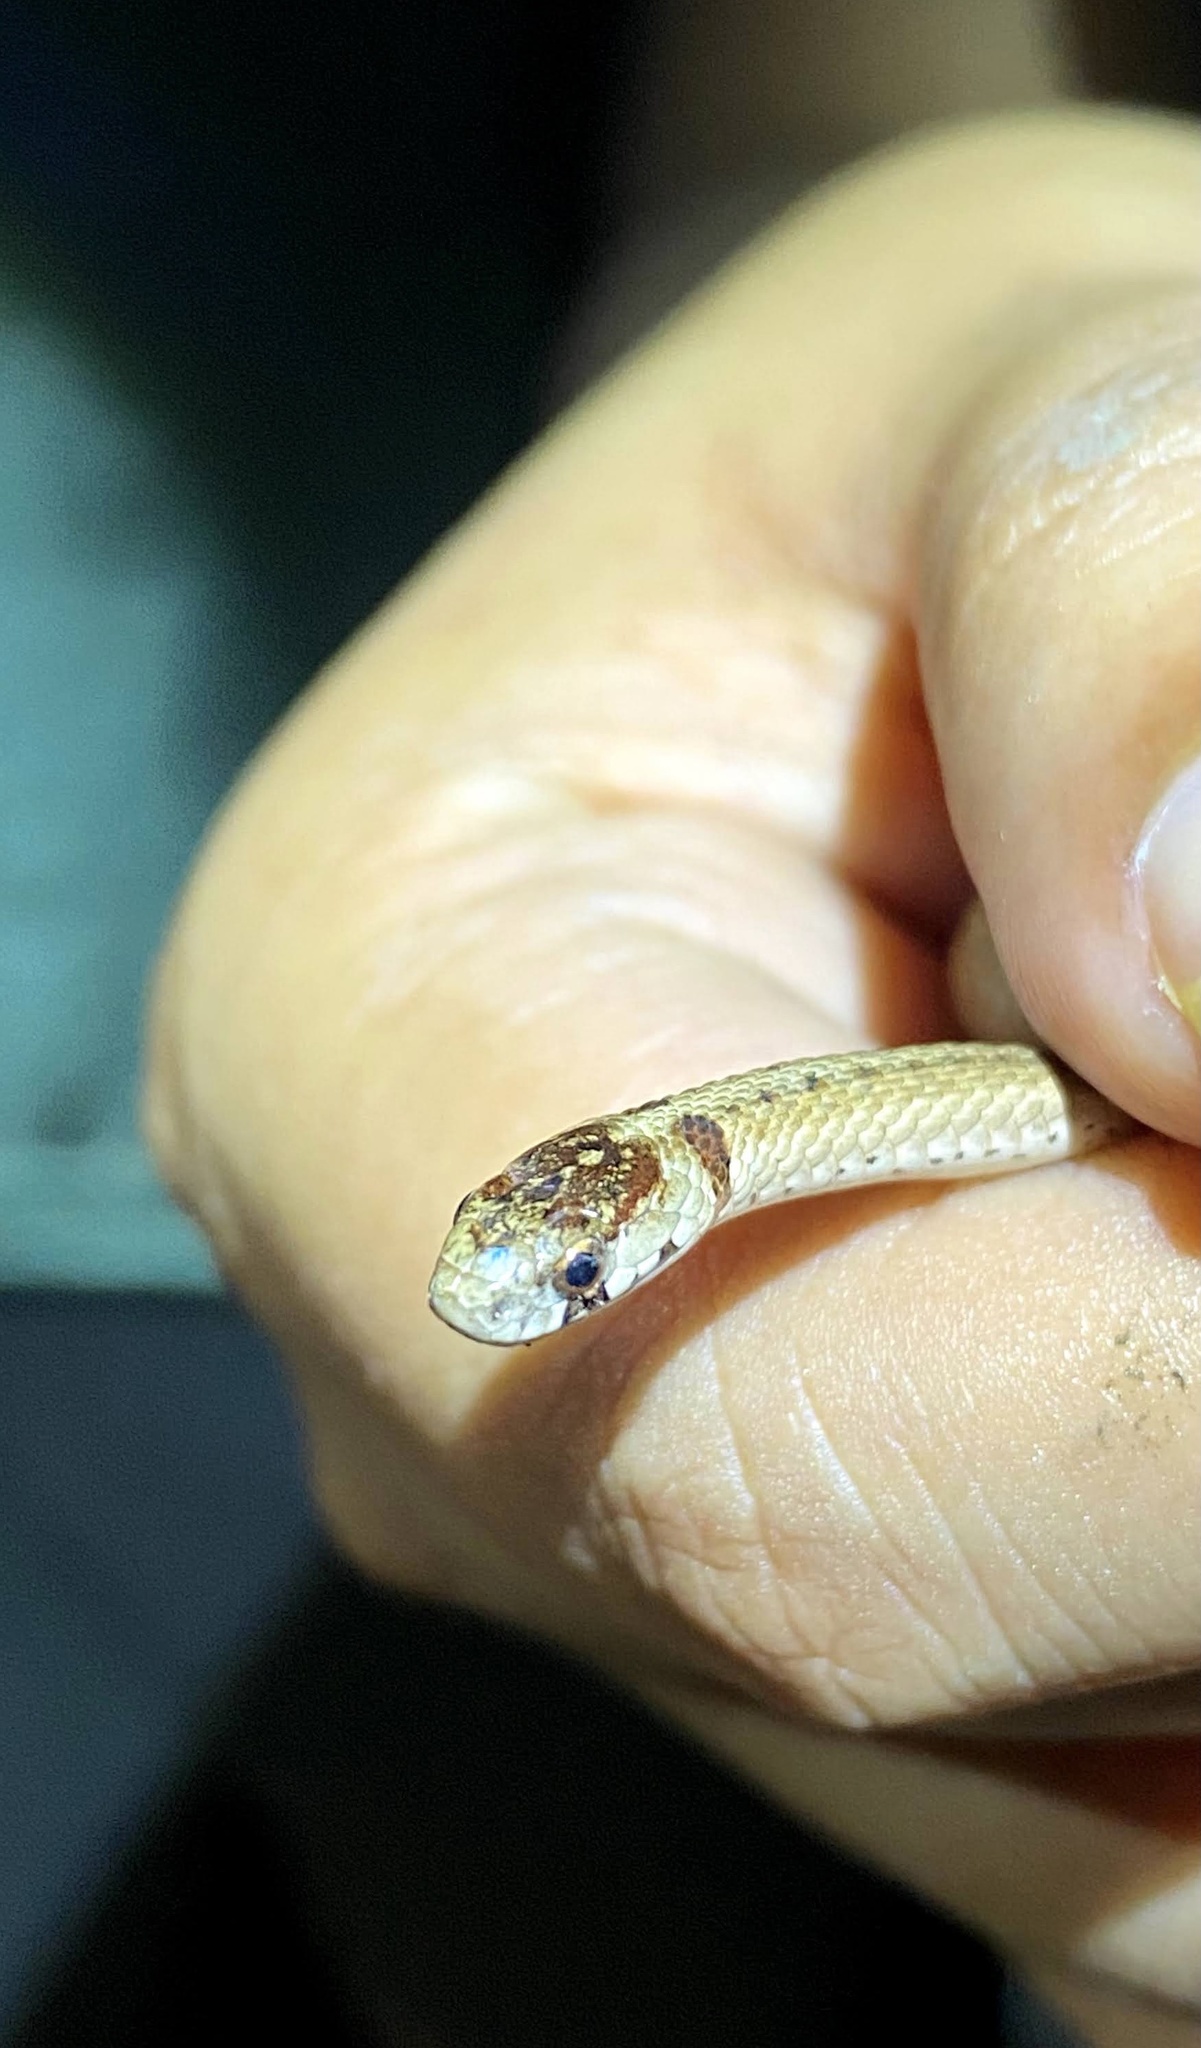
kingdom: Animalia
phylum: Chordata
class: Squamata
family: Colubridae
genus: Storeria
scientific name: Storeria dekayi
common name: (dekay’s) brown snake
